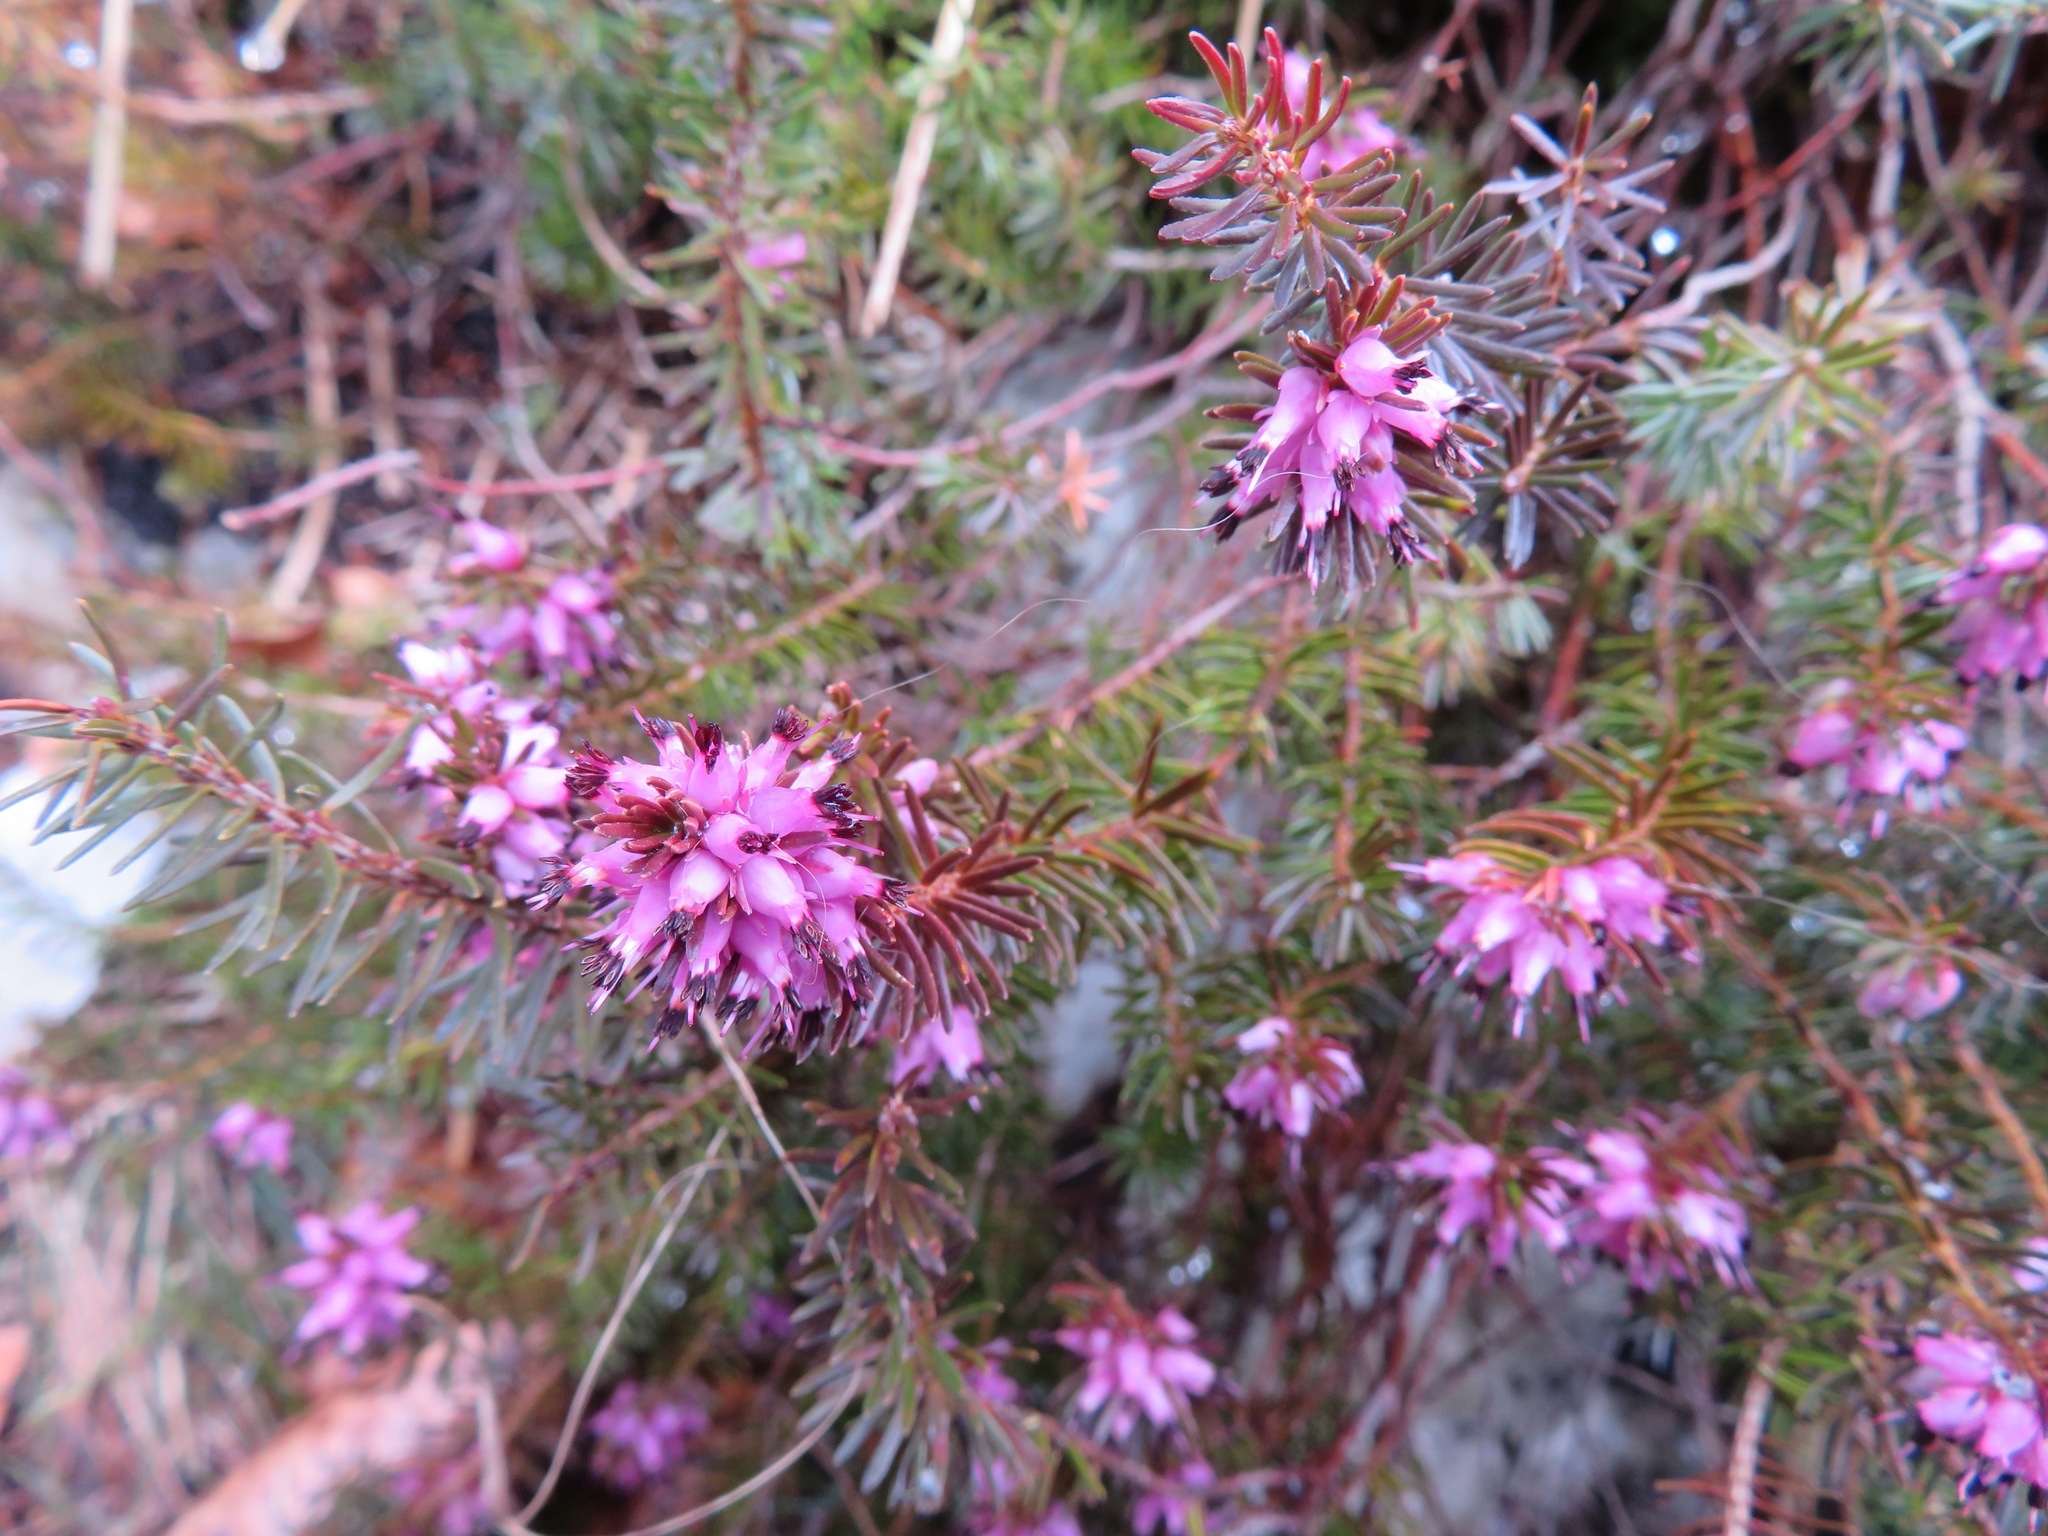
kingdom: Plantae
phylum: Tracheophyta
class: Magnoliopsida
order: Ericales
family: Ericaceae
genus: Erica
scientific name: Erica carnea
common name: Winter heath
